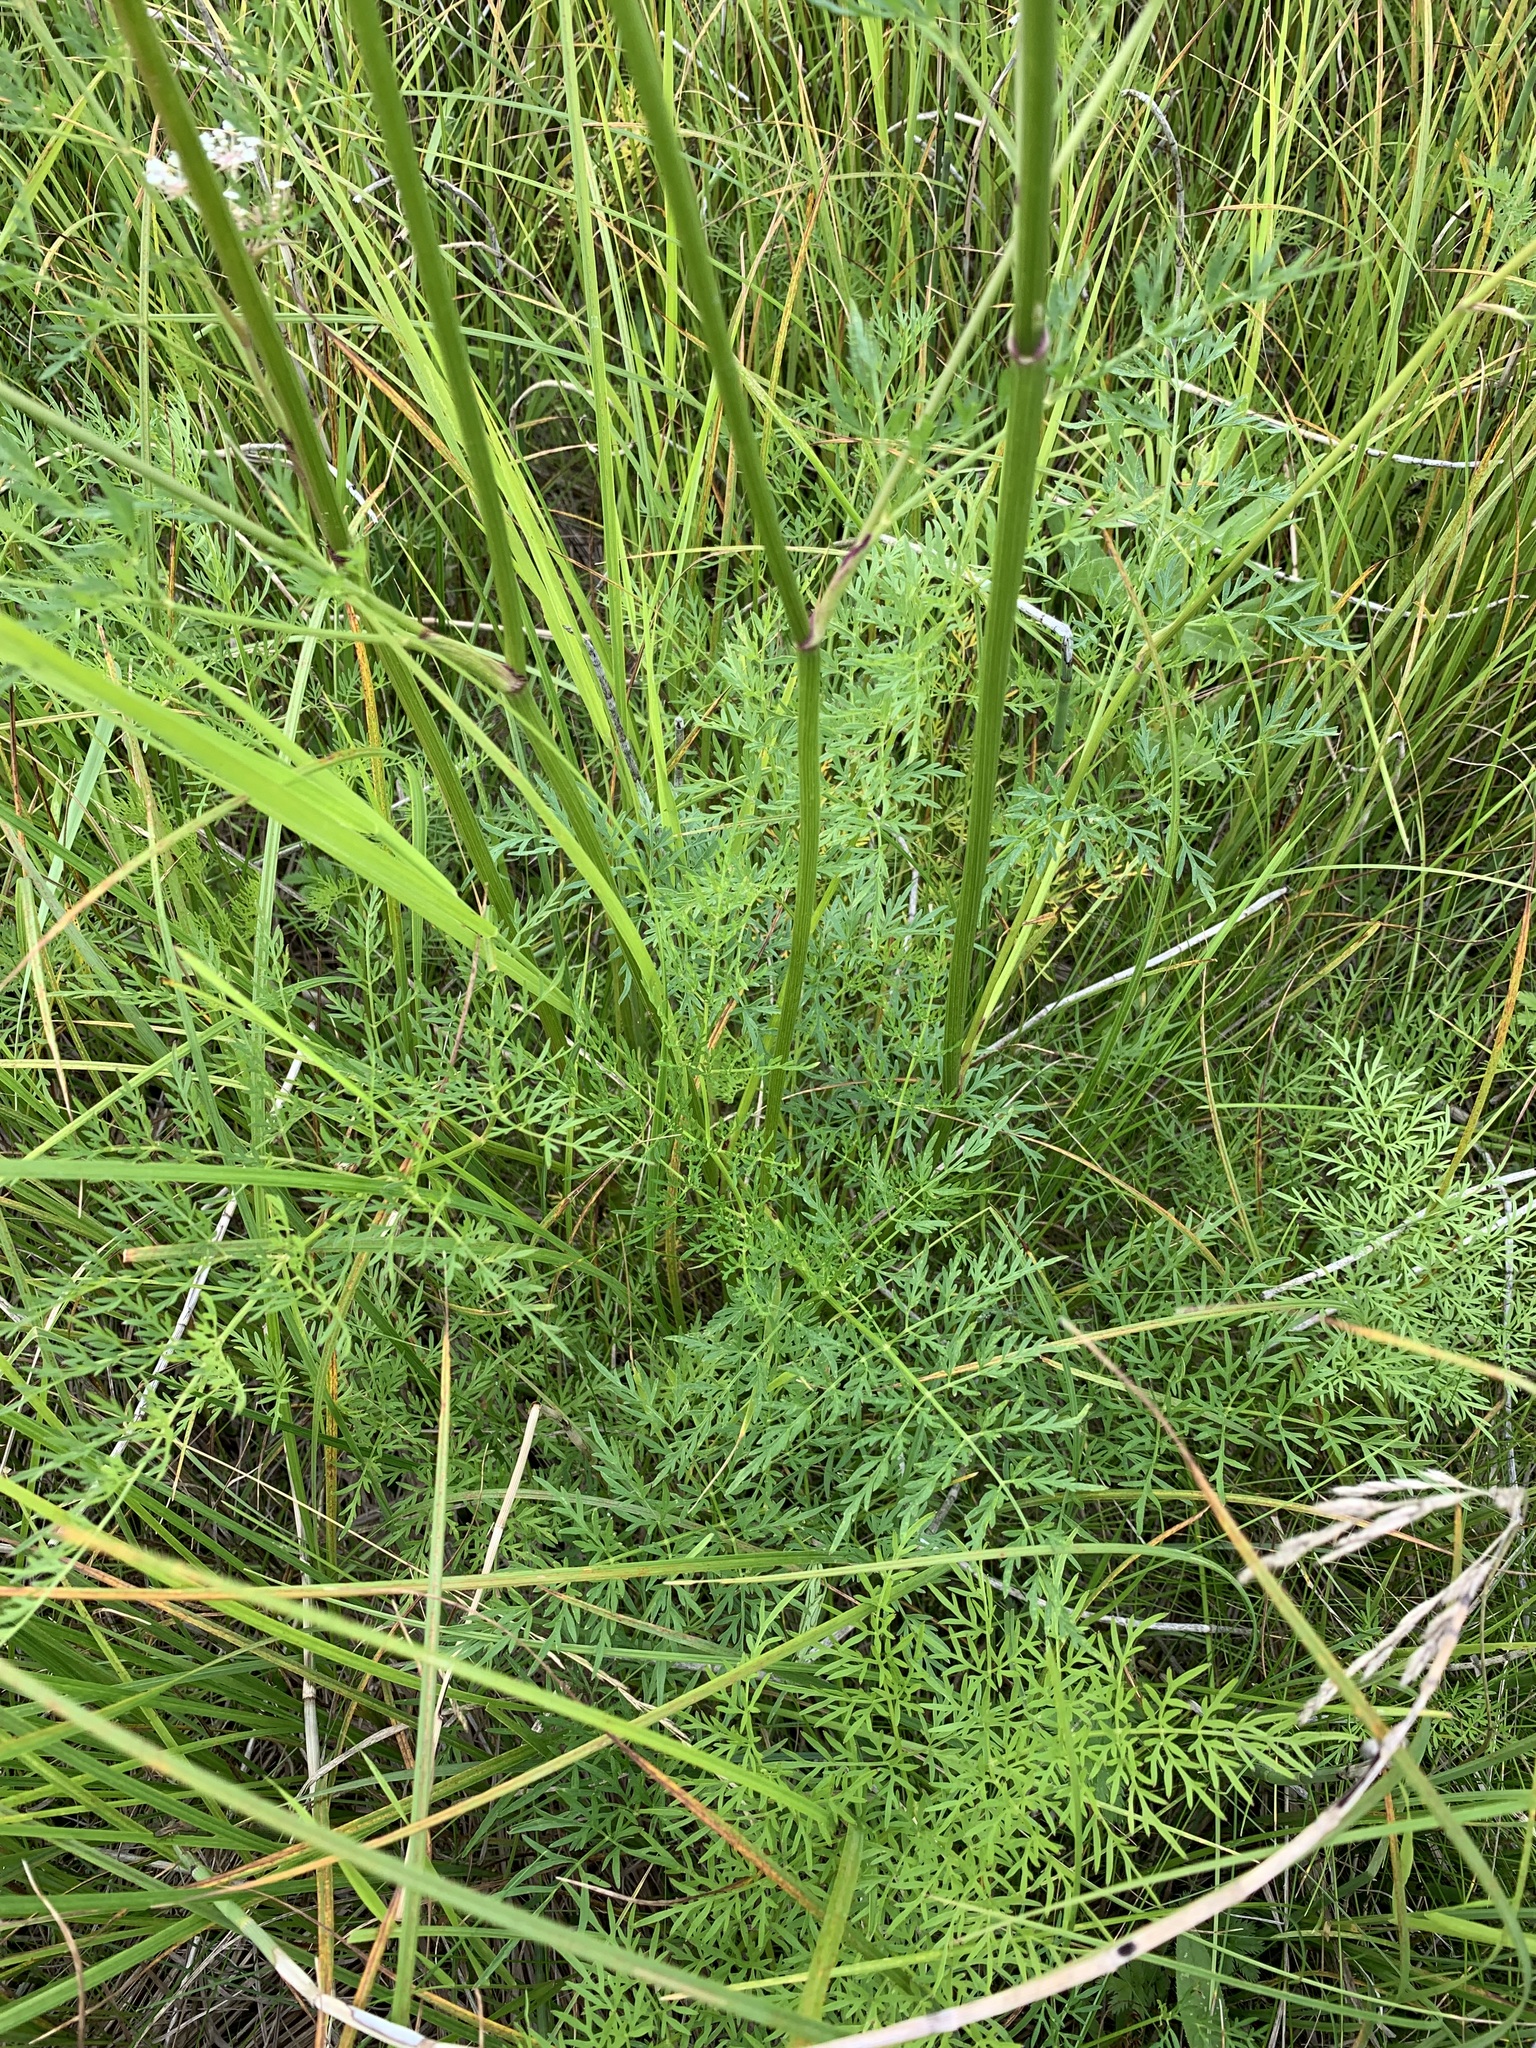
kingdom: Plantae
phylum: Tracheophyta
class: Magnoliopsida
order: Apiales
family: Apiaceae
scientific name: Apiaceae
